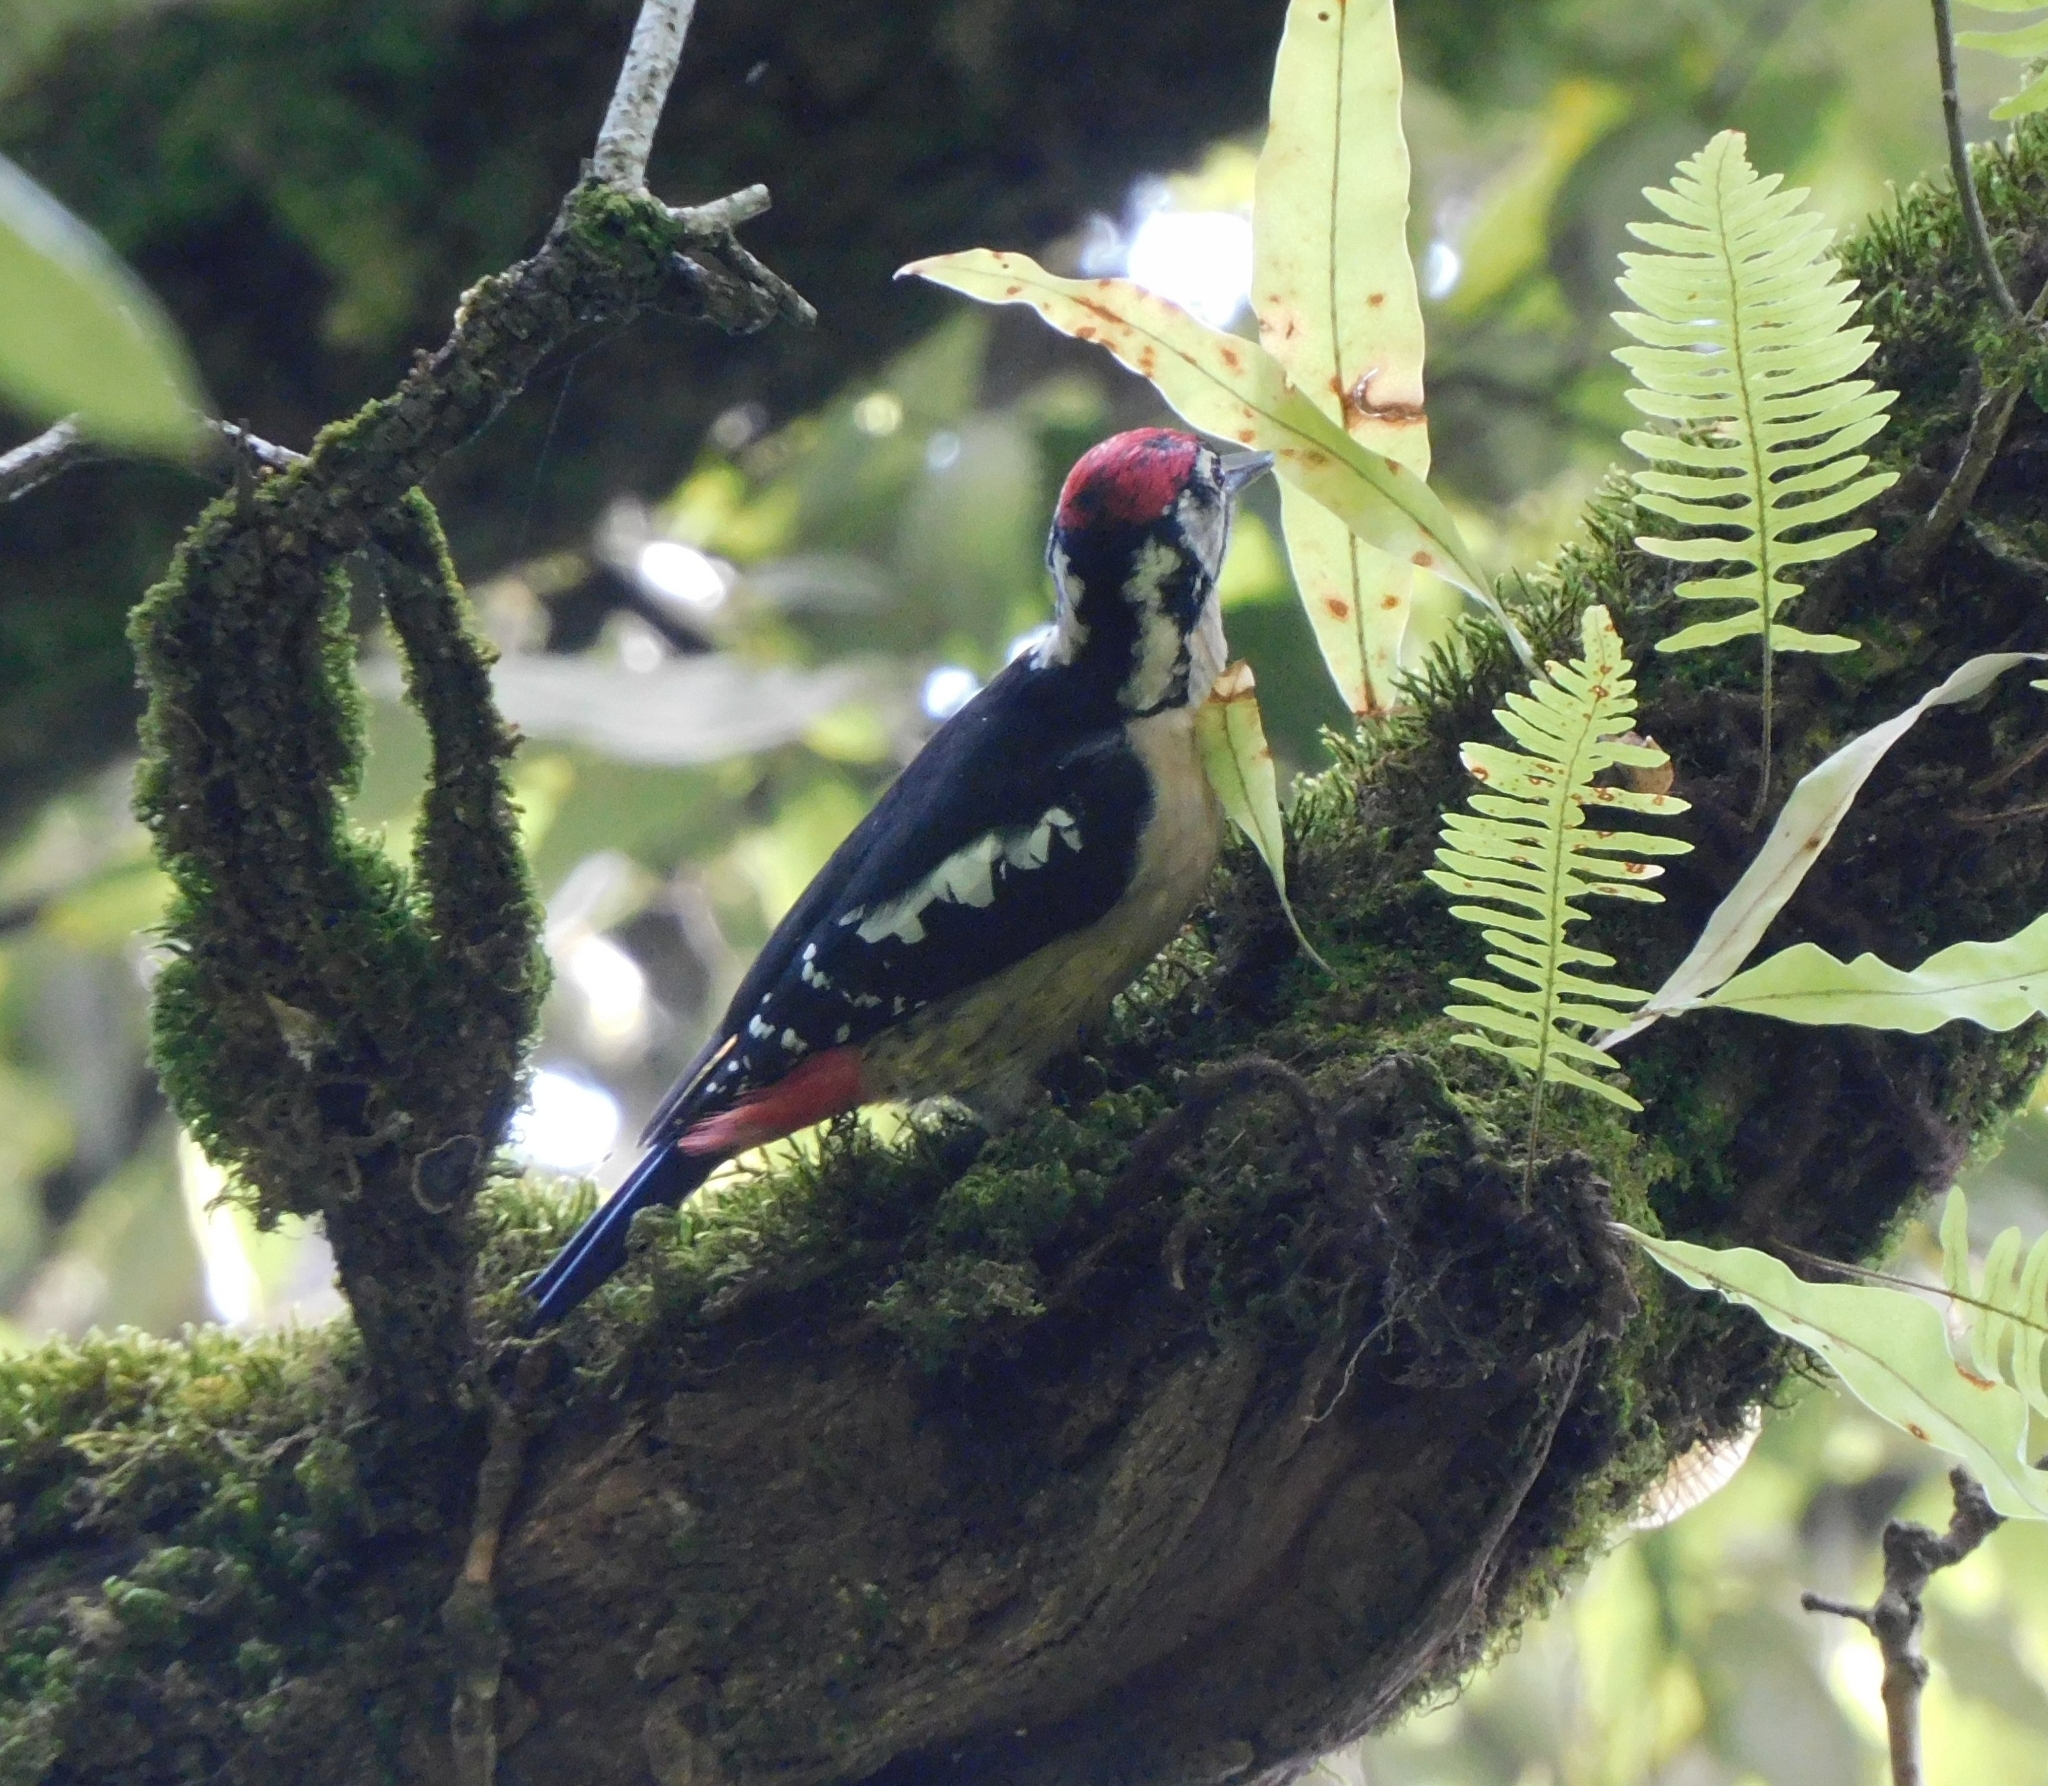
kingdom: Animalia
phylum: Chordata
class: Aves
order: Piciformes
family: Picidae
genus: Dendrocopos
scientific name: Dendrocopos himalayensis
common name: Himalayan woodpecker
